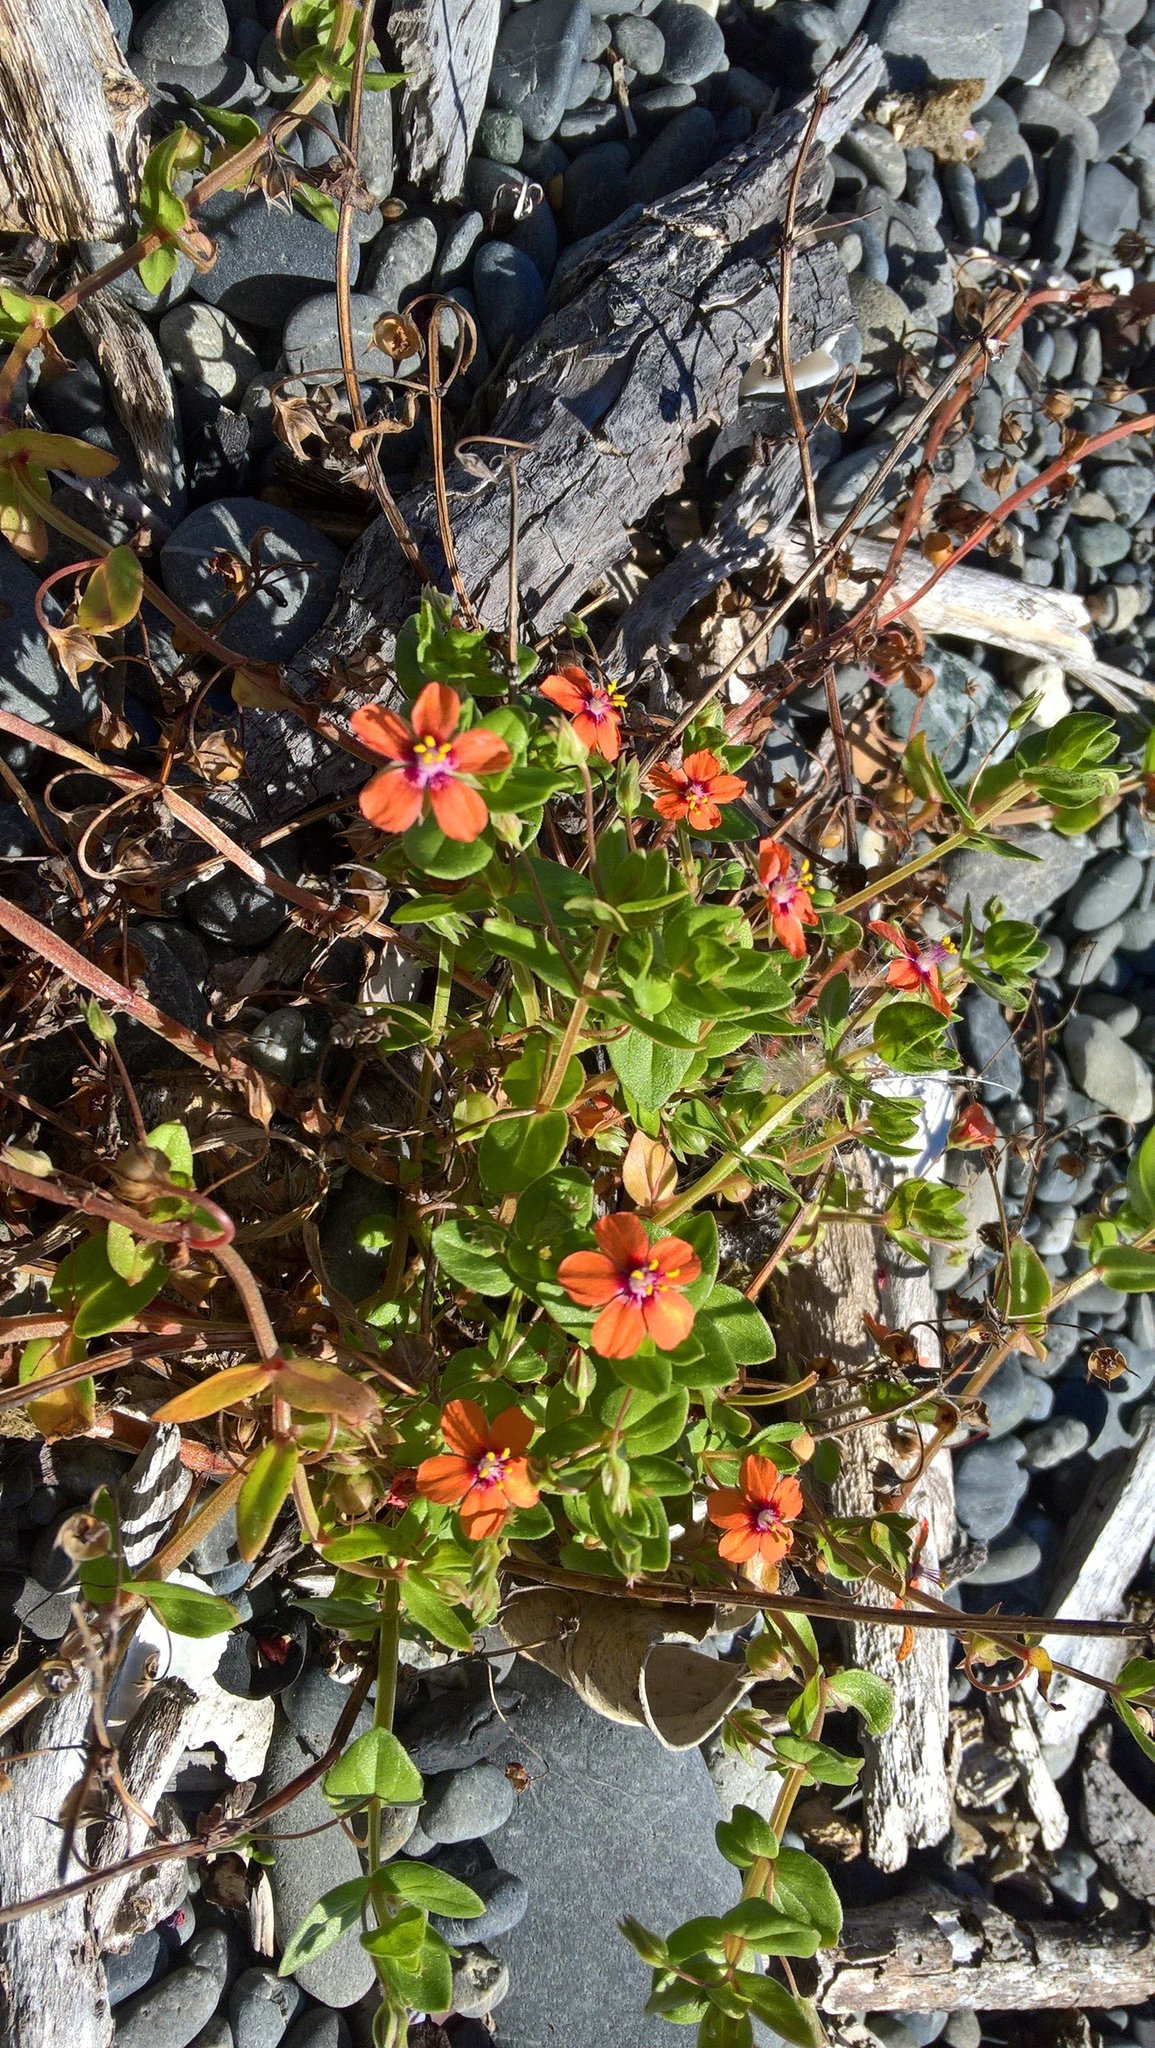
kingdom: Plantae
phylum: Tracheophyta
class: Magnoliopsida
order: Ericales
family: Primulaceae
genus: Lysimachia
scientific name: Lysimachia arvensis
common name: Scarlet pimpernel
